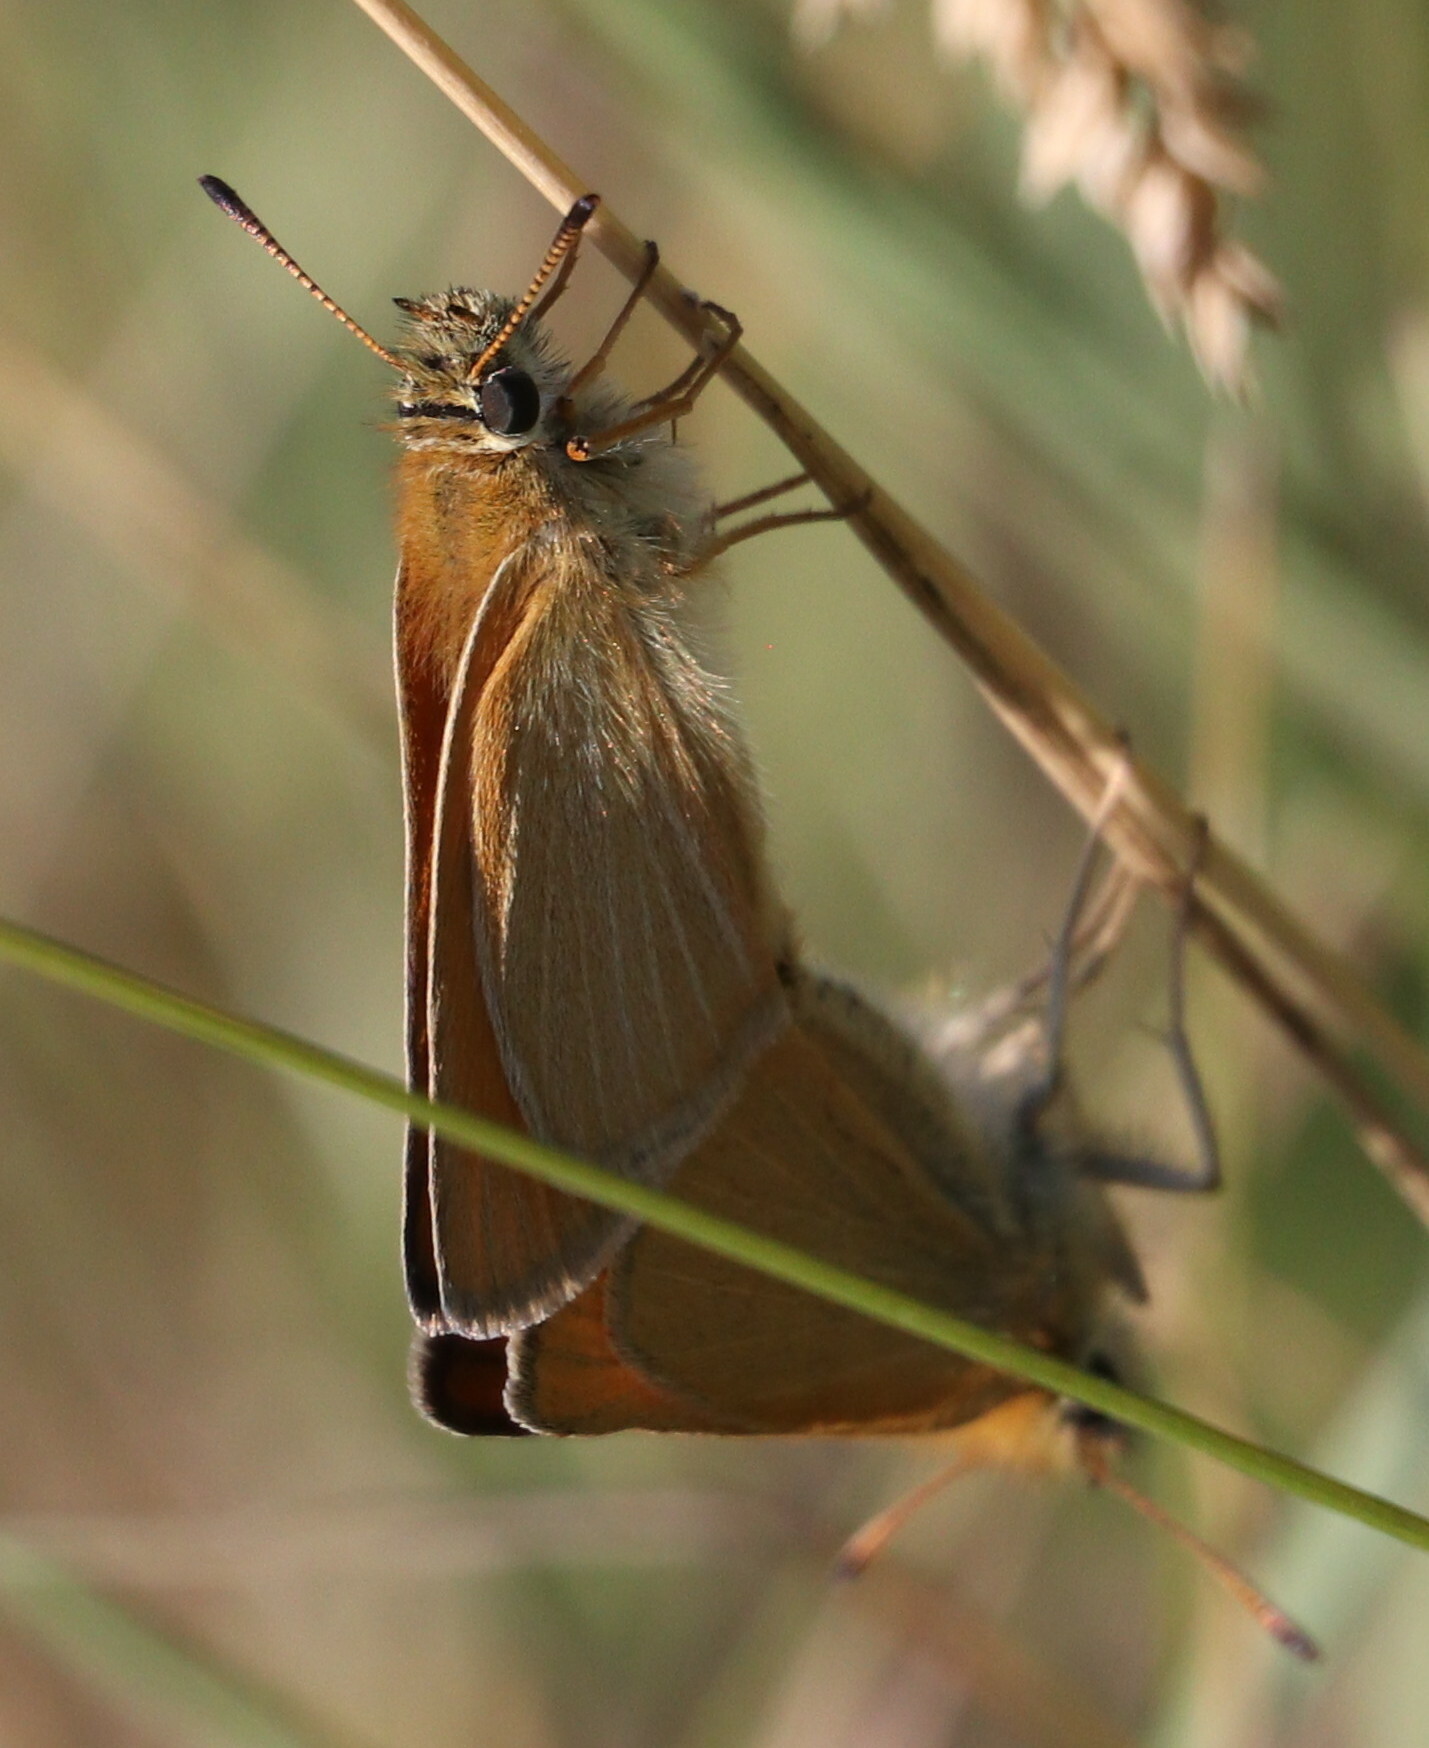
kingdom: Animalia
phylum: Arthropoda
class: Insecta
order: Lepidoptera
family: Hesperiidae
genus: Thymelicus
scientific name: Thymelicus lineola
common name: Essex skipper
